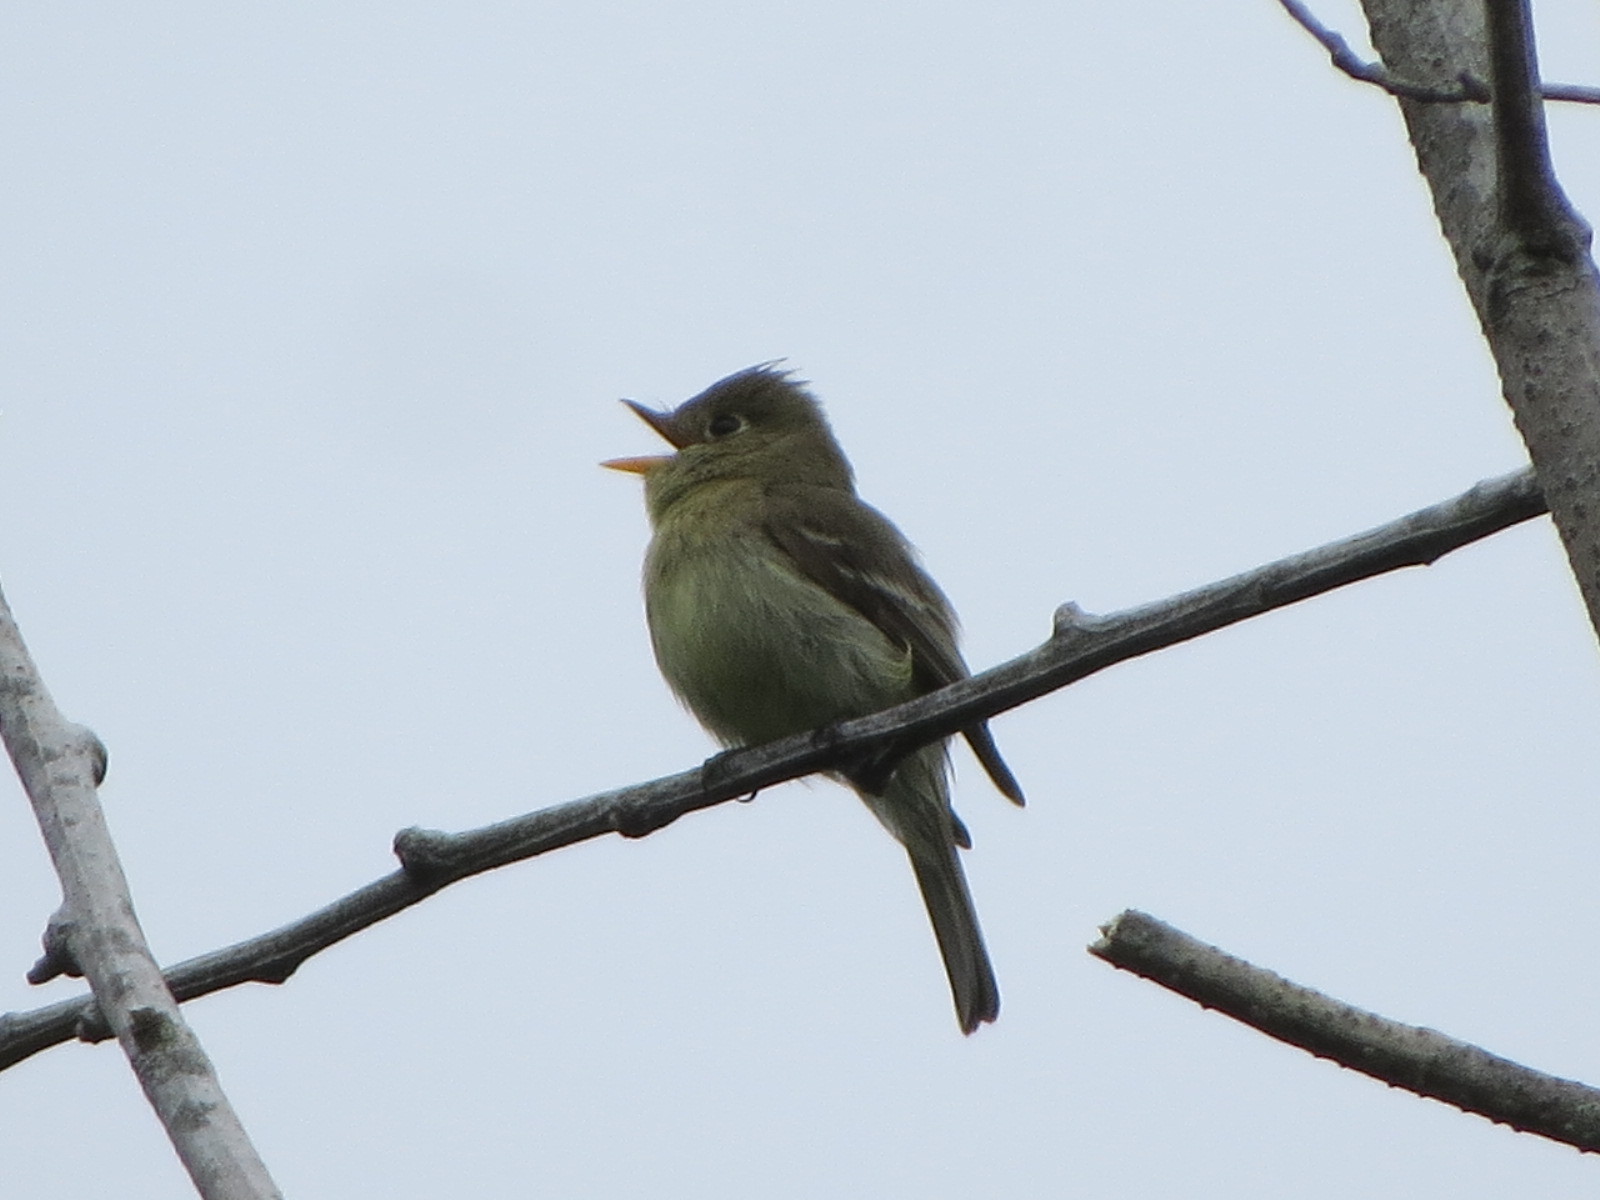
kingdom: Animalia
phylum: Chordata
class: Aves
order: Passeriformes
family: Tyrannidae
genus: Empidonax
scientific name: Empidonax difficilis
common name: Pacific-slope flycatcher
